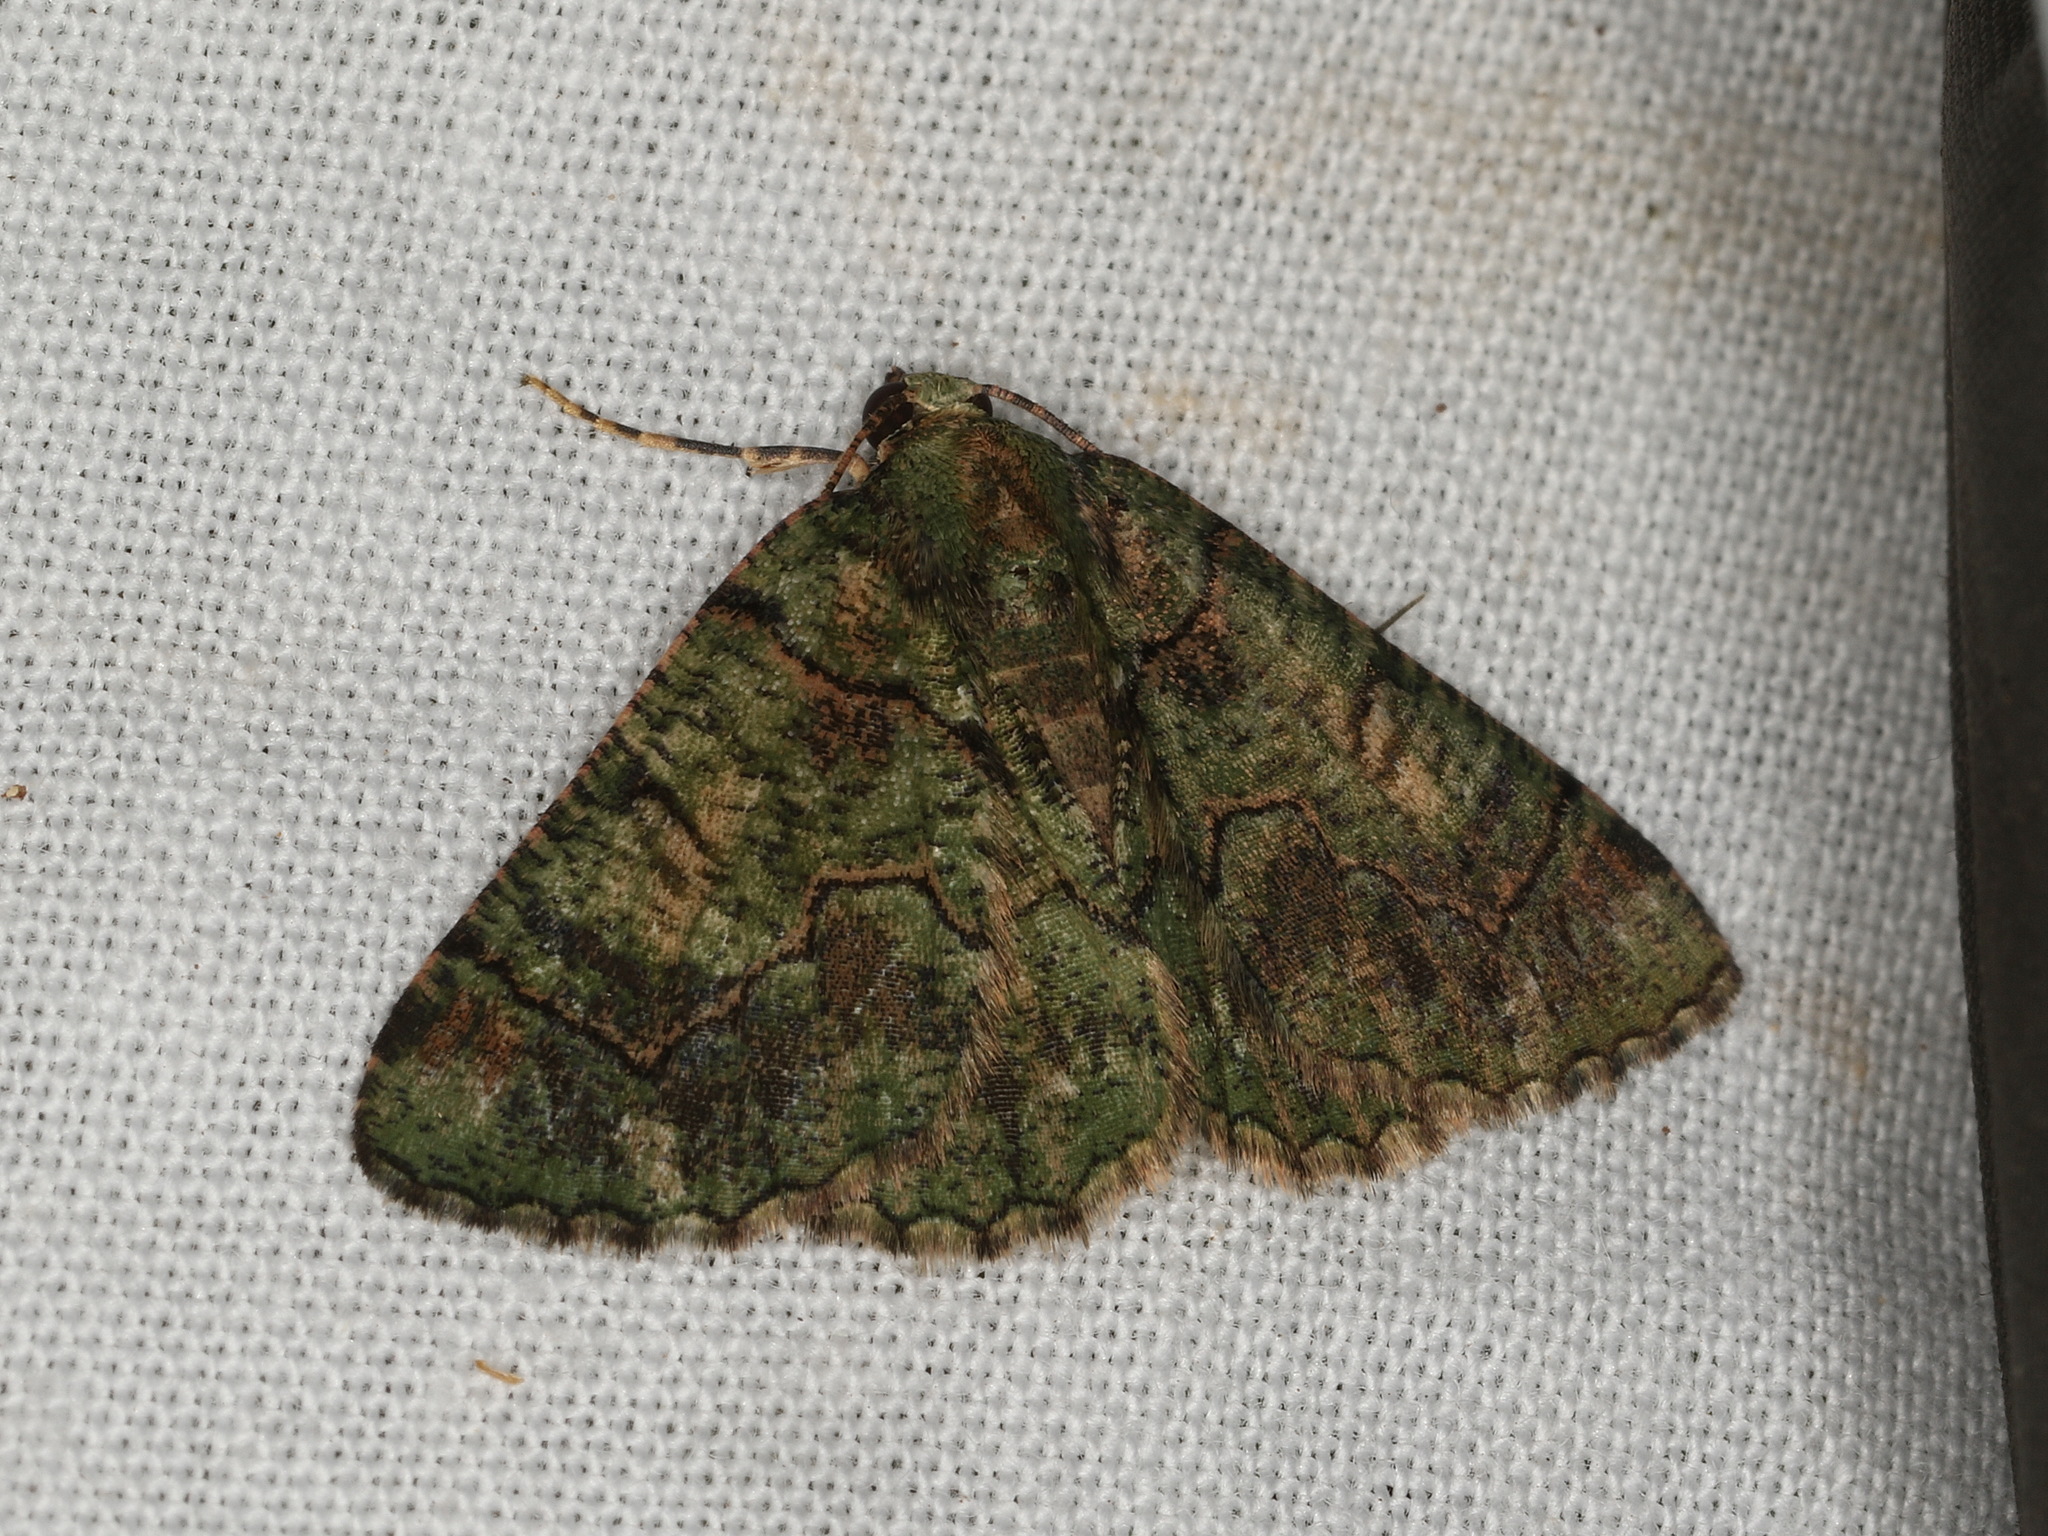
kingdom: Animalia
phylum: Arthropoda
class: Insecta
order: Lepidoptera
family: Geometridae
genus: Aeolochroma
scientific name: Aeolochroma rhodochlora
